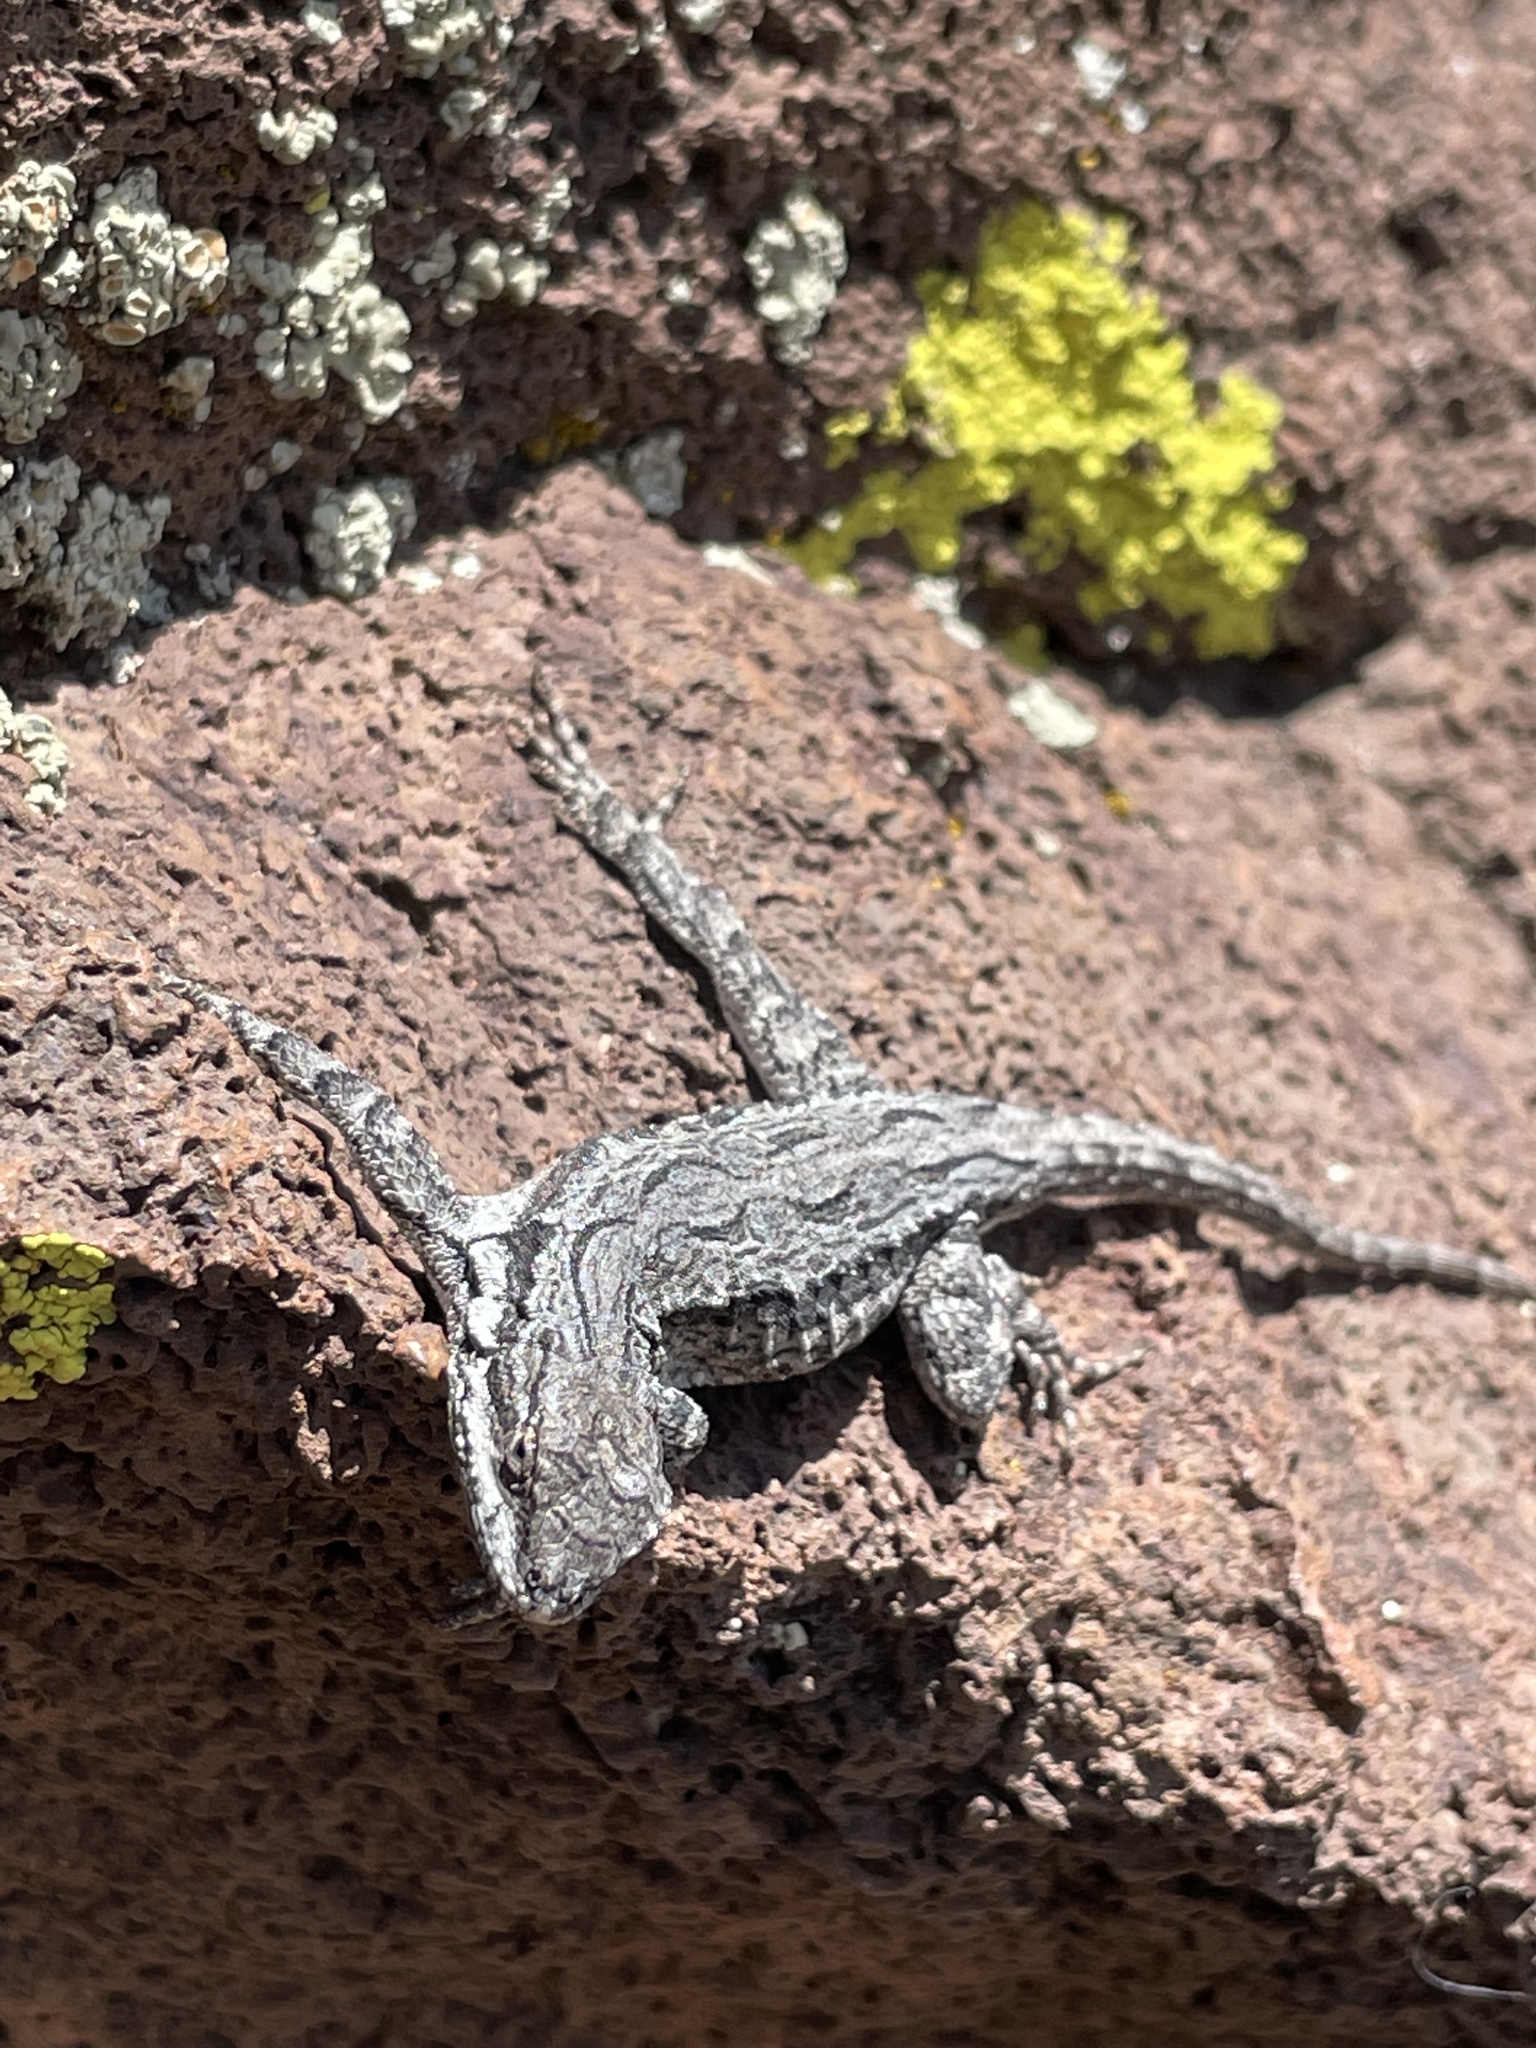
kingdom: Animalia
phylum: Chordata
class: Squamata
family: Phrynosomatidae
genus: Urosaurus
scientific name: Urosaurus ornatus
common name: Ornate tree lizard
